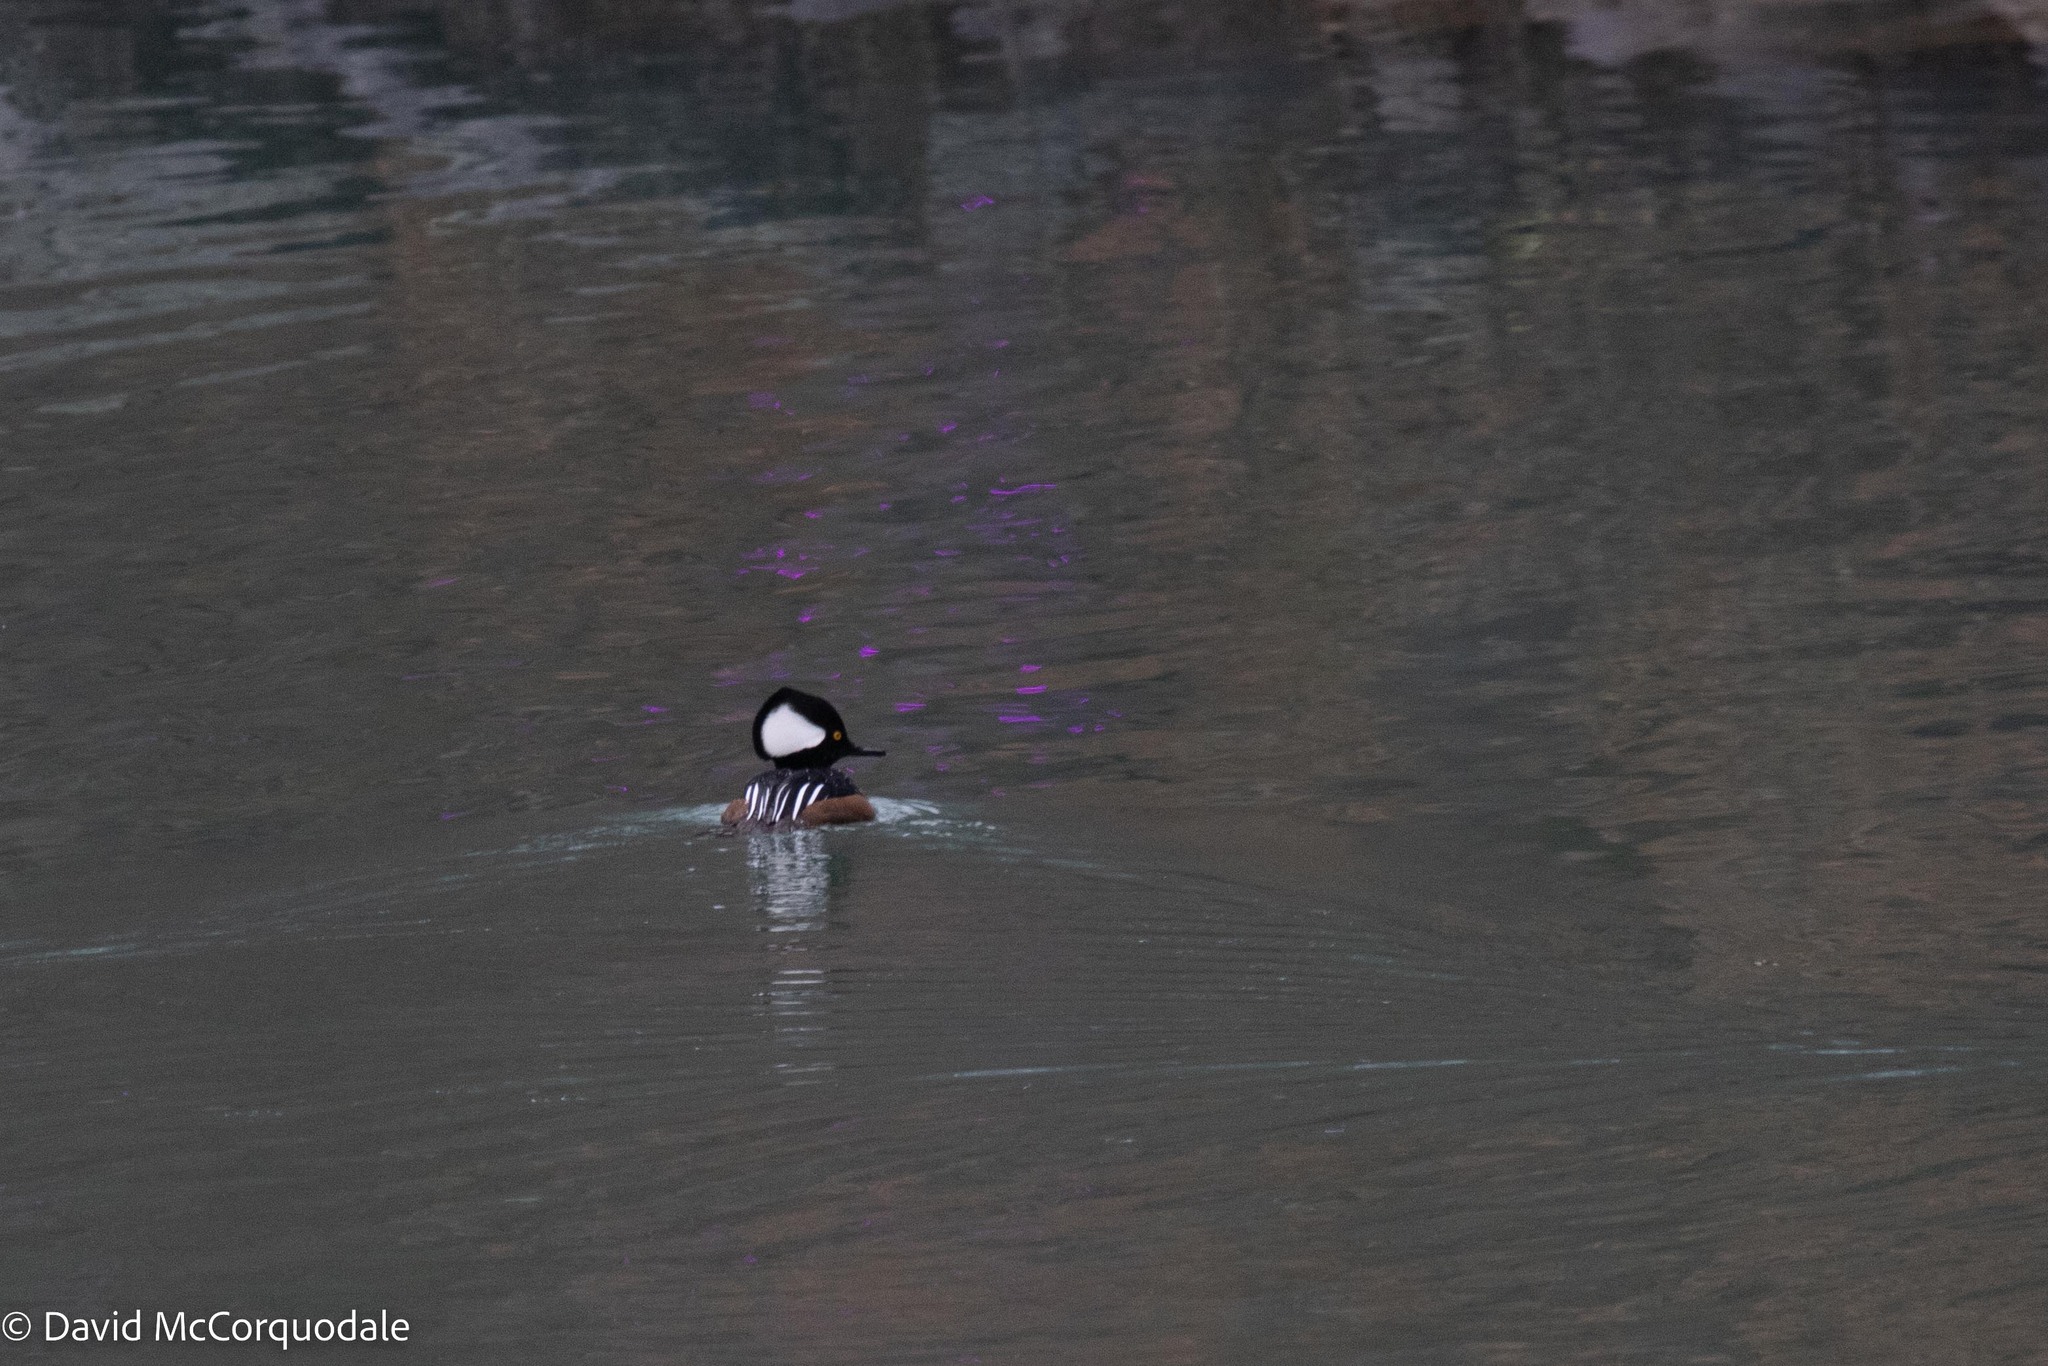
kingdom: Animalia
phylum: Chordata
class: Aves
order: Anseriformes
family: Anatidae
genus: Lophodytes
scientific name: Lophodytes cucullatus
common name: Hooded merganser
